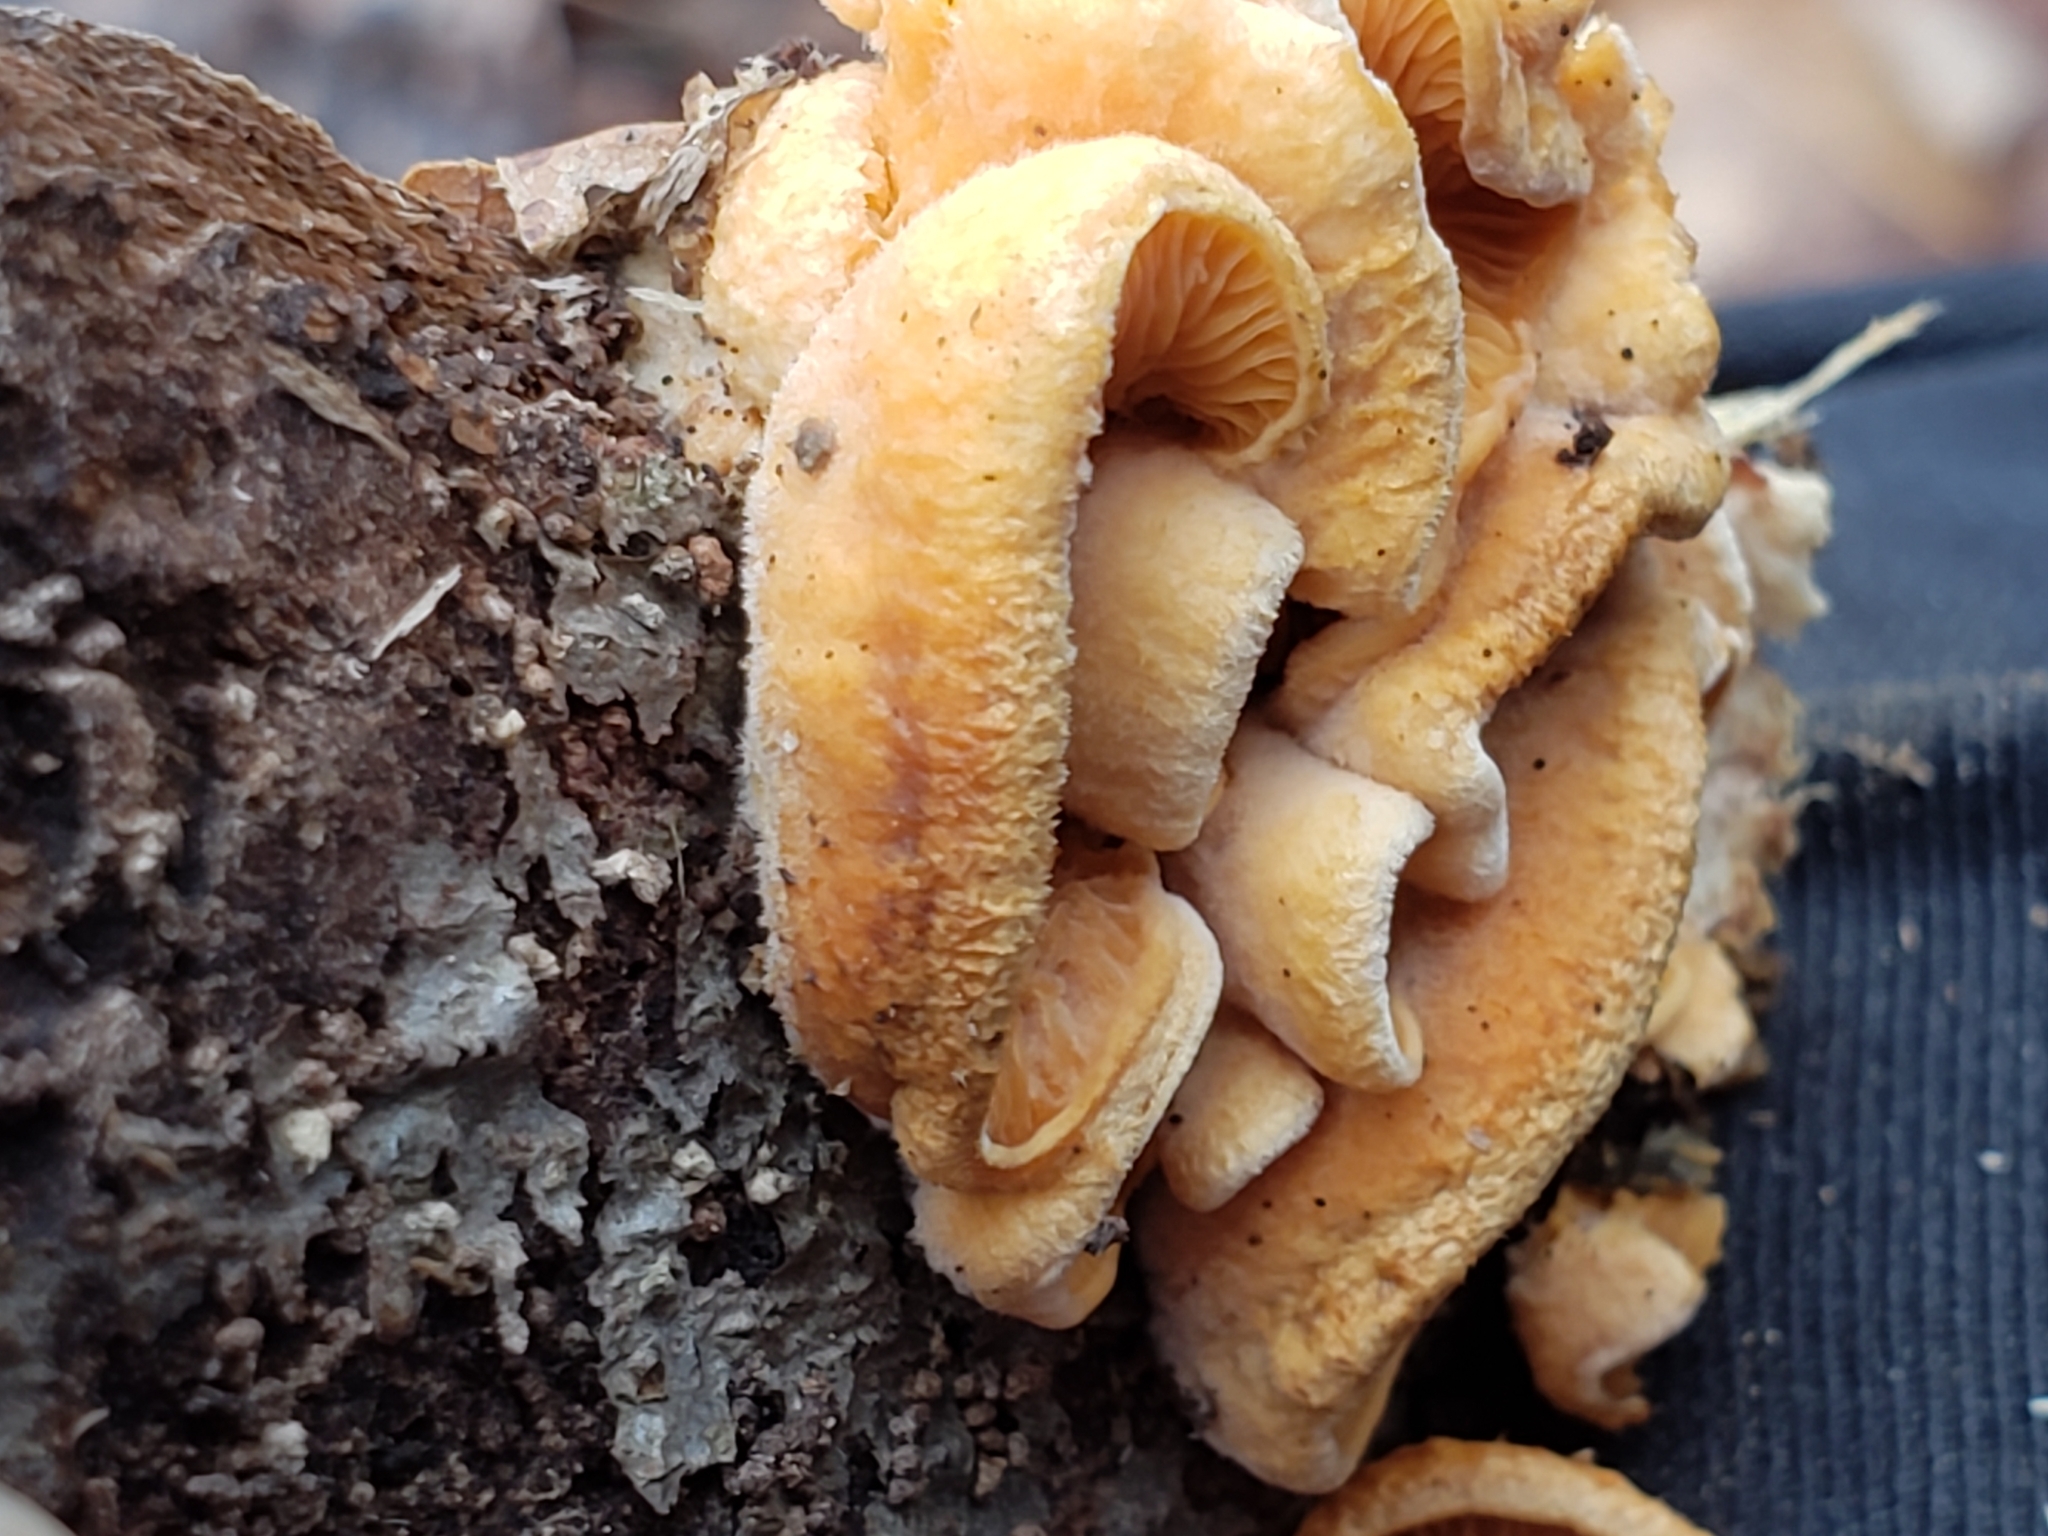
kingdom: Fungi
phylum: Basidiomycota
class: Agaricomycetes
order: Agaricales
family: Phyllotopsidaceae
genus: Phyllotopsis
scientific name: Phyllotopsis nidulans
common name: Orange mock oyster
